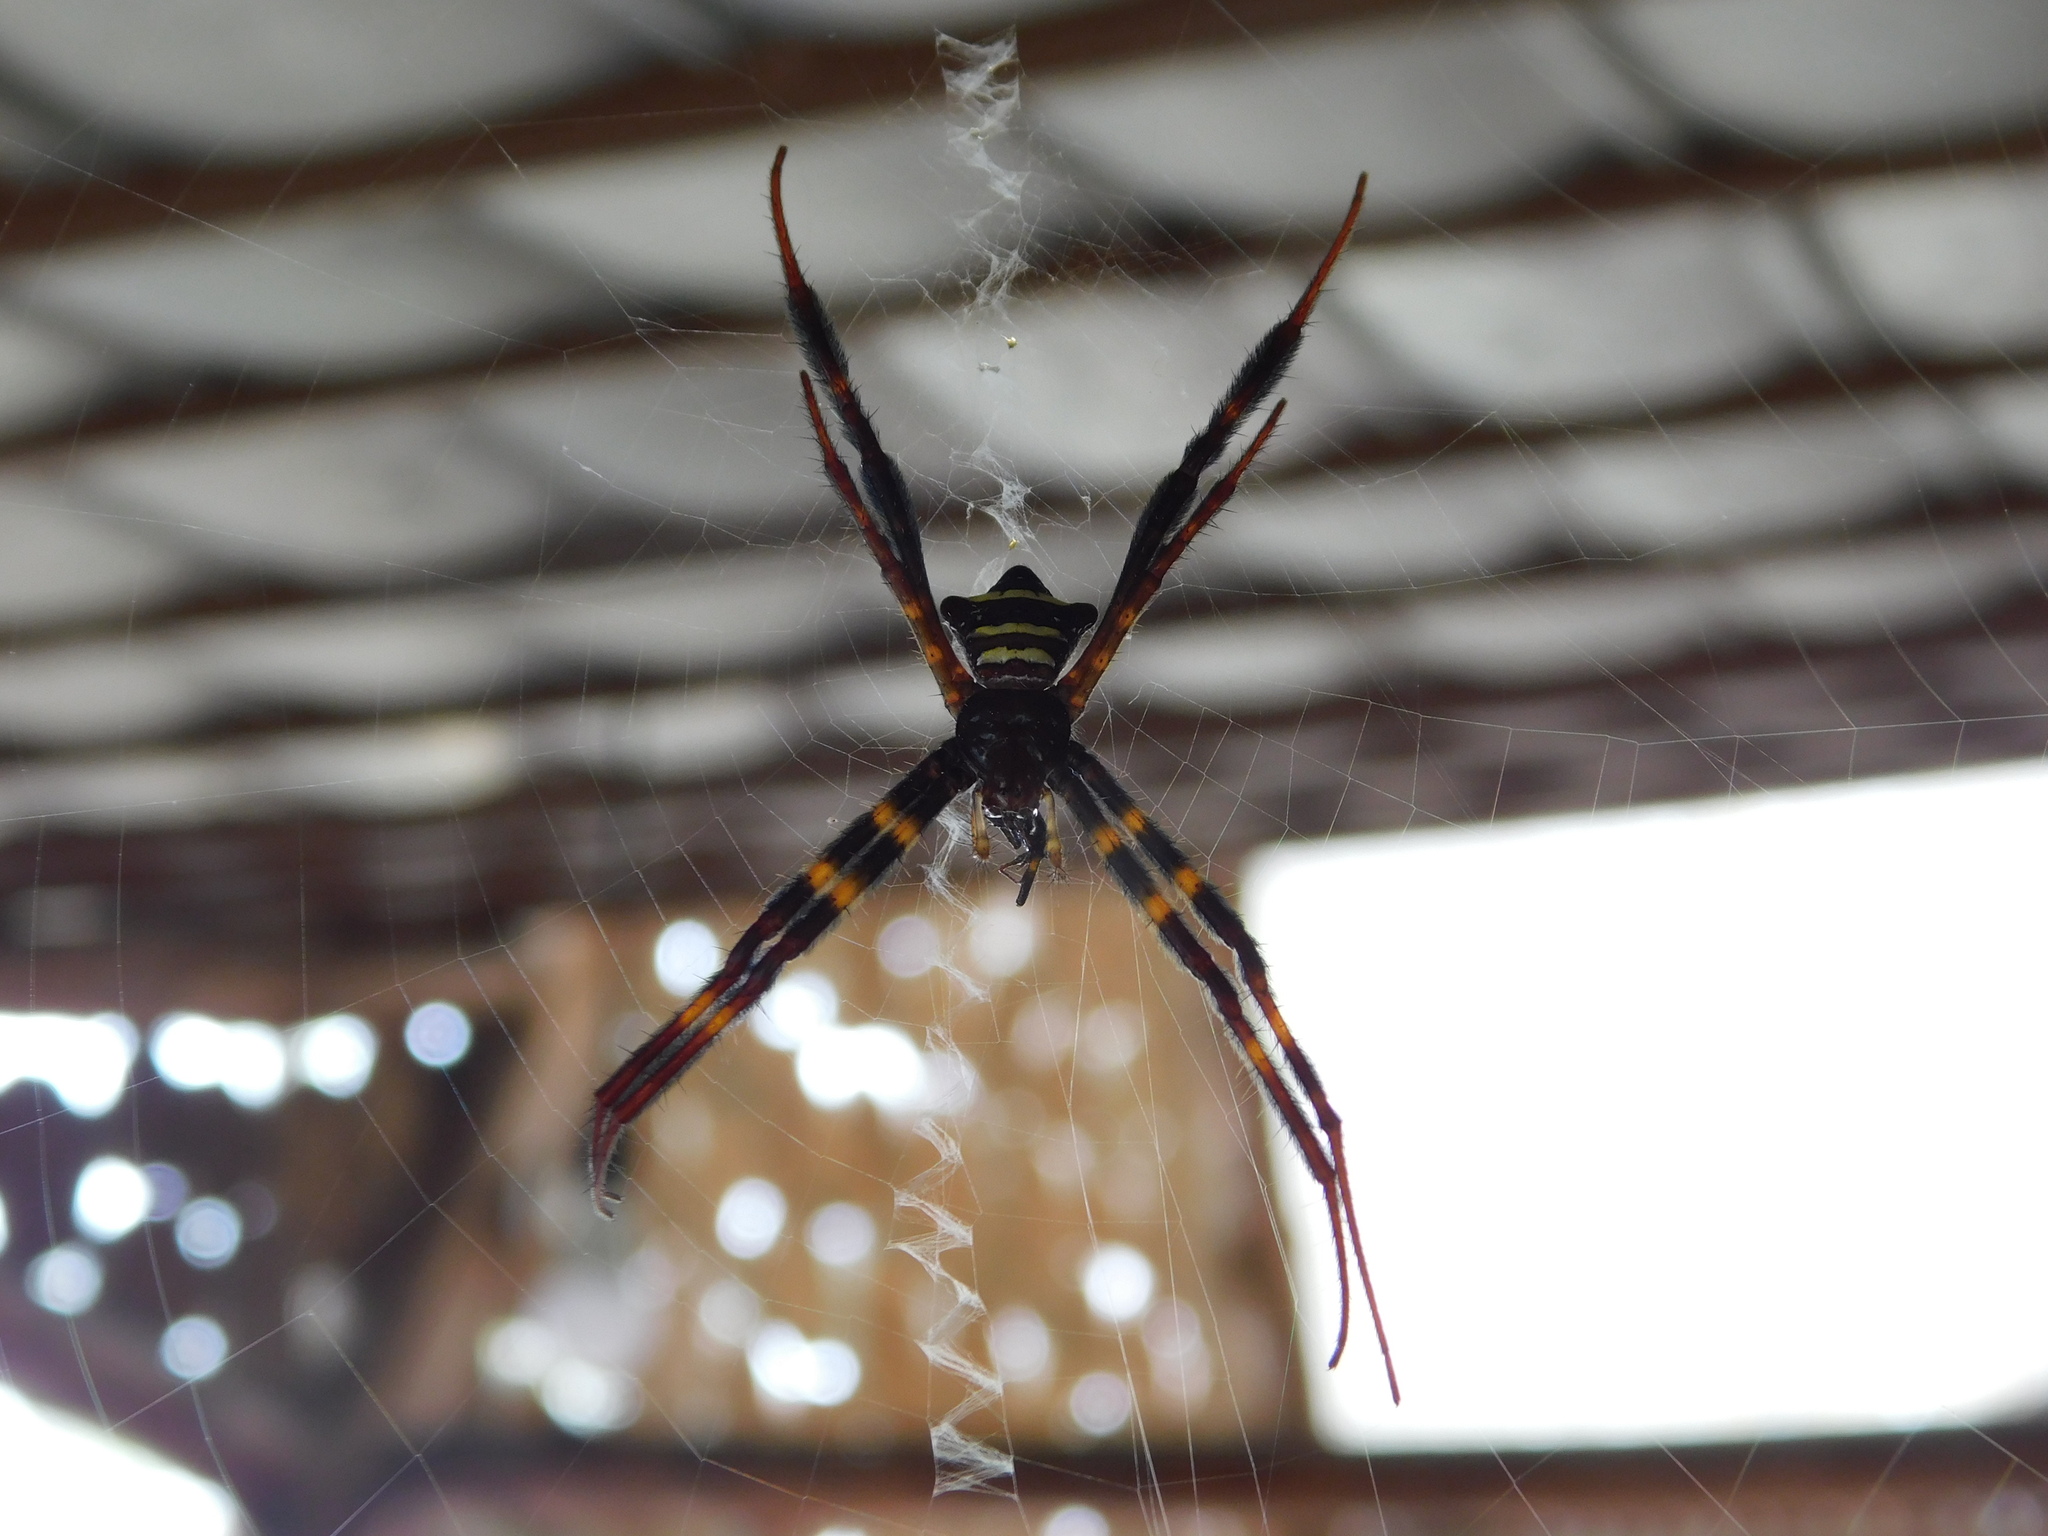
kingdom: Animalia
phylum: Arthropoda
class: Arachnida
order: Araneae
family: Araneidae
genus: Argiope
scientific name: Argiope reinwardti
